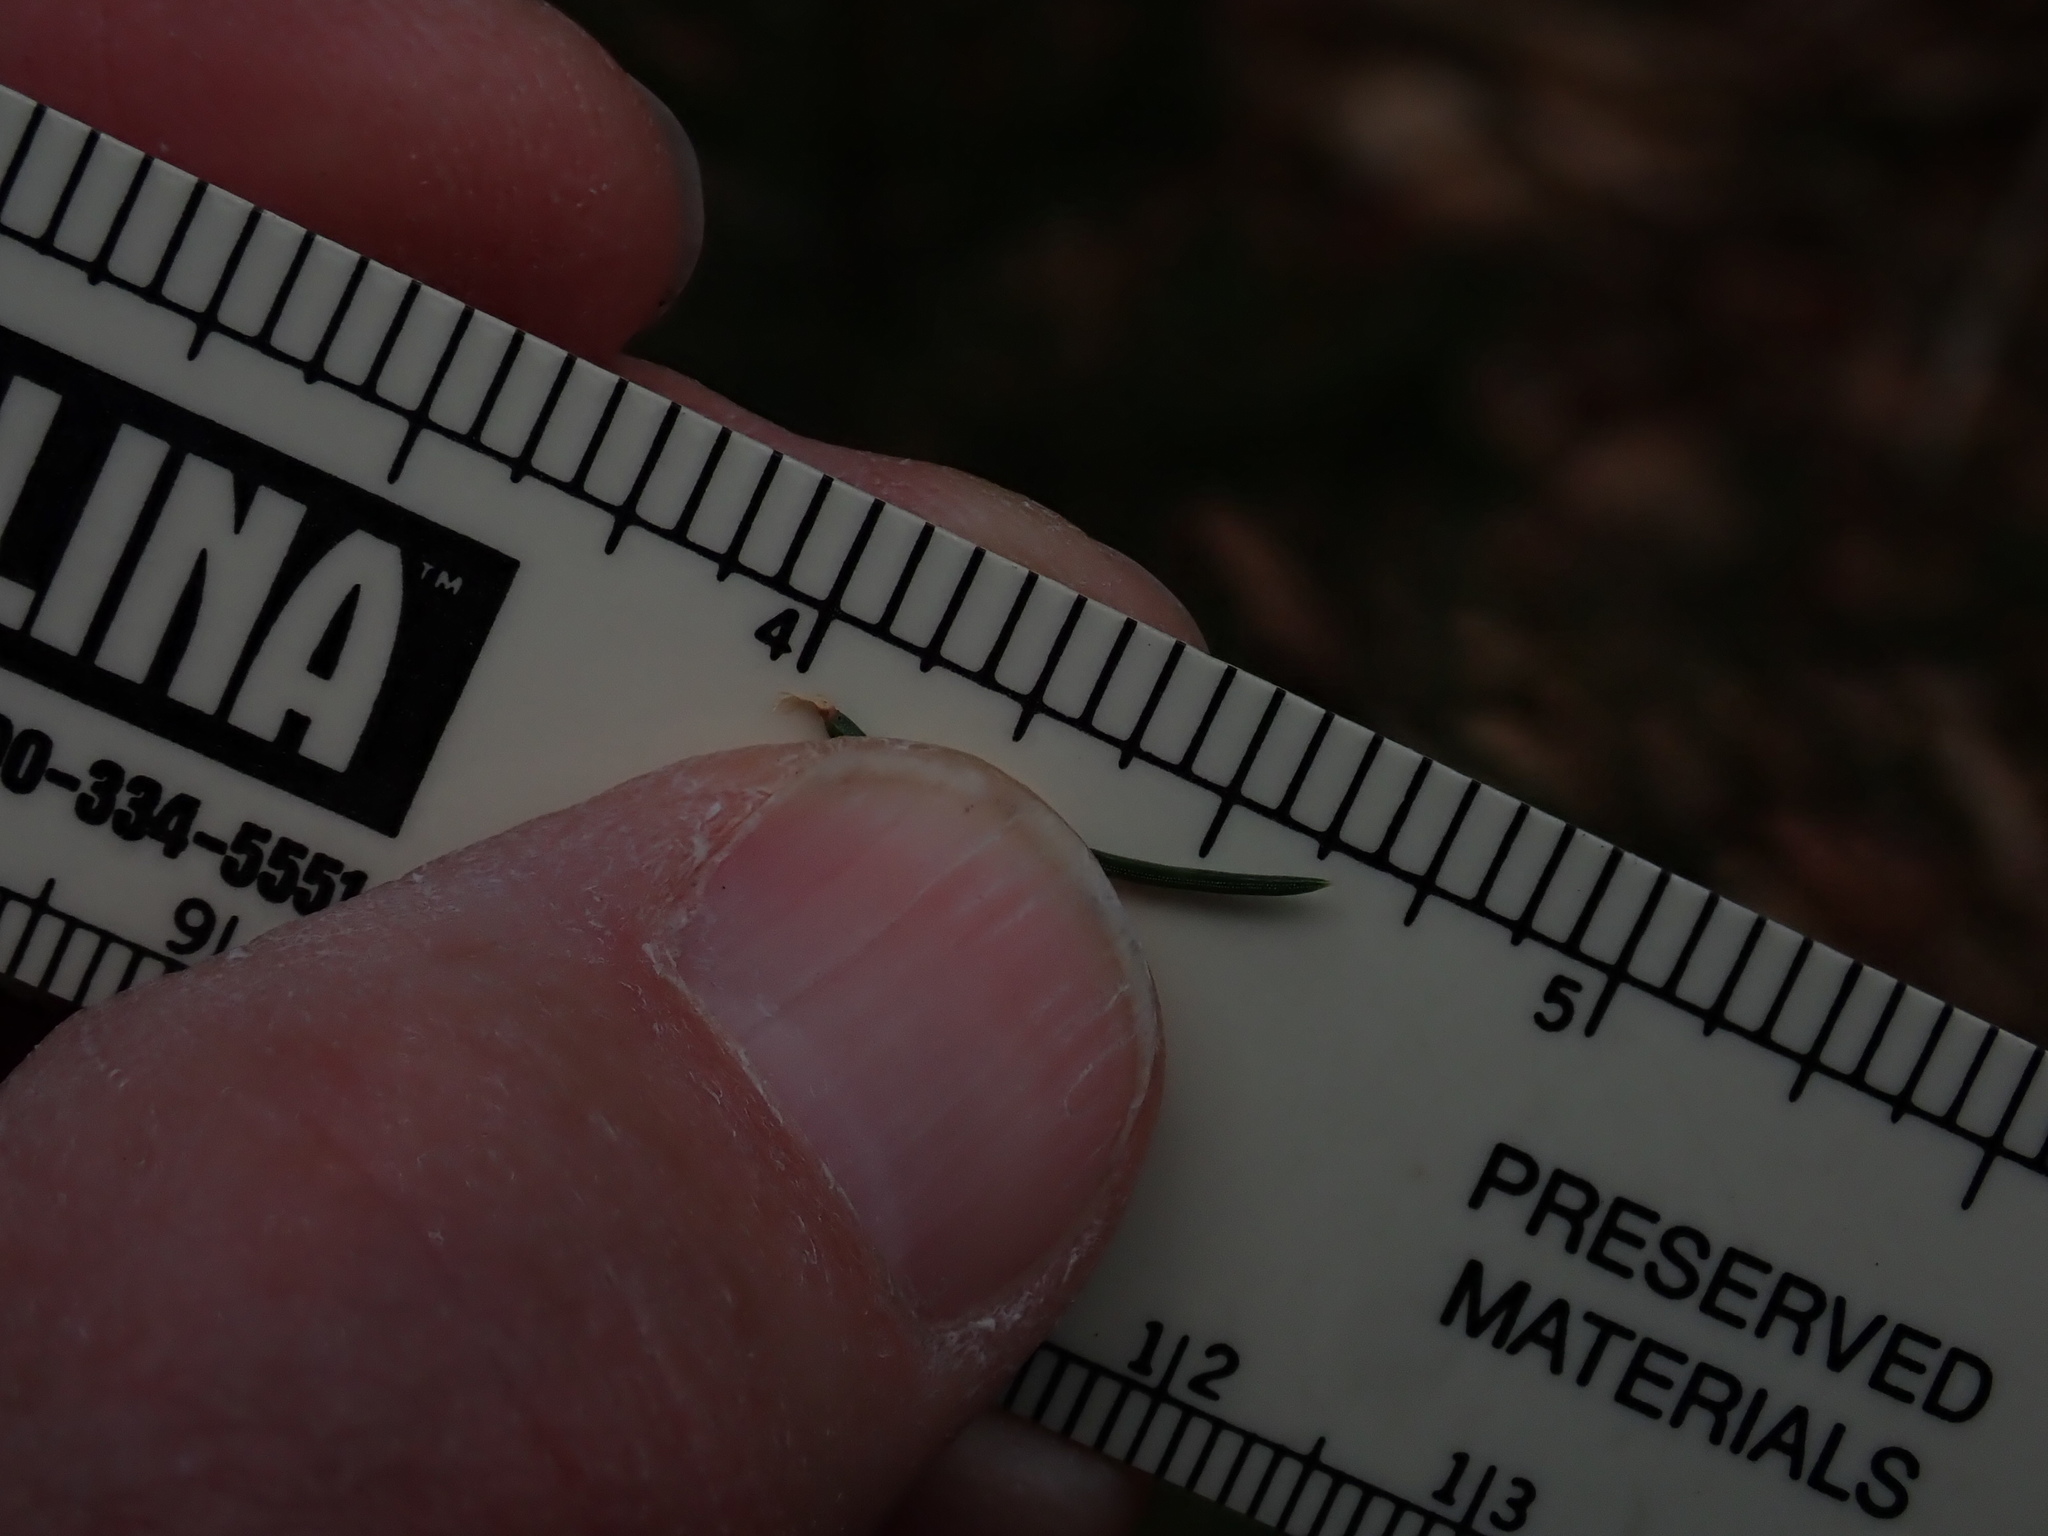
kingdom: Plantae
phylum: Tracheophyta
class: Pinopsida
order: Pinales
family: Pinaceae
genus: Picea
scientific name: Picea abies
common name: Norway spruce
